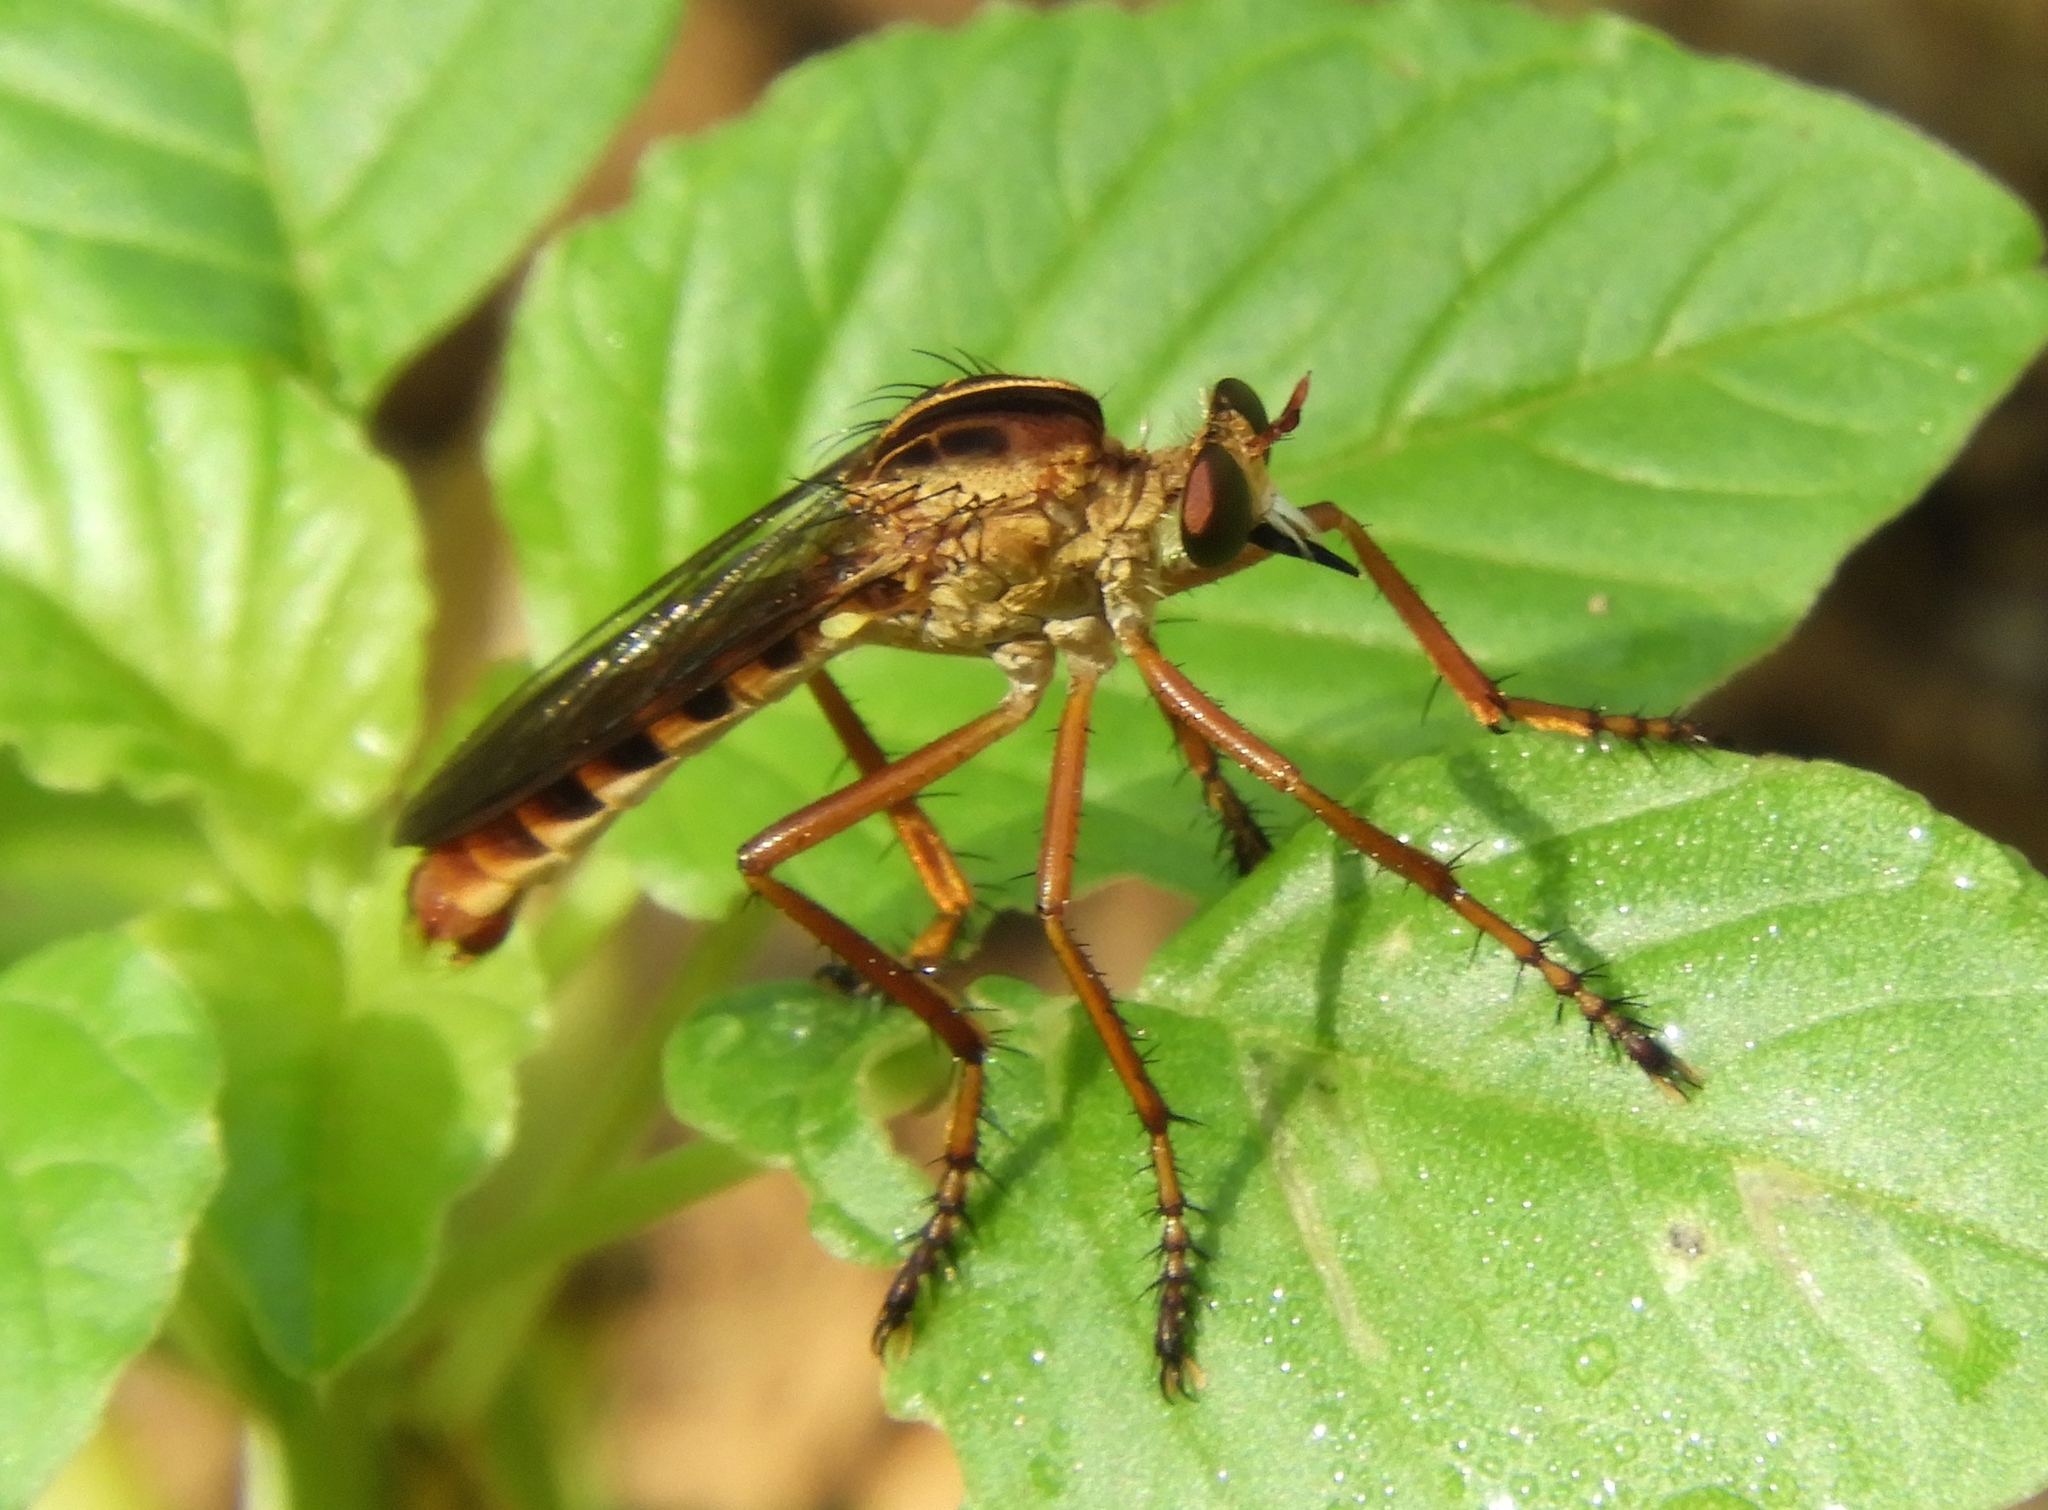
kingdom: Animalia
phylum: Arthropoda
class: Insecta
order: Diptera
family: Asilidae
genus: Diogmites
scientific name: Diogmites
